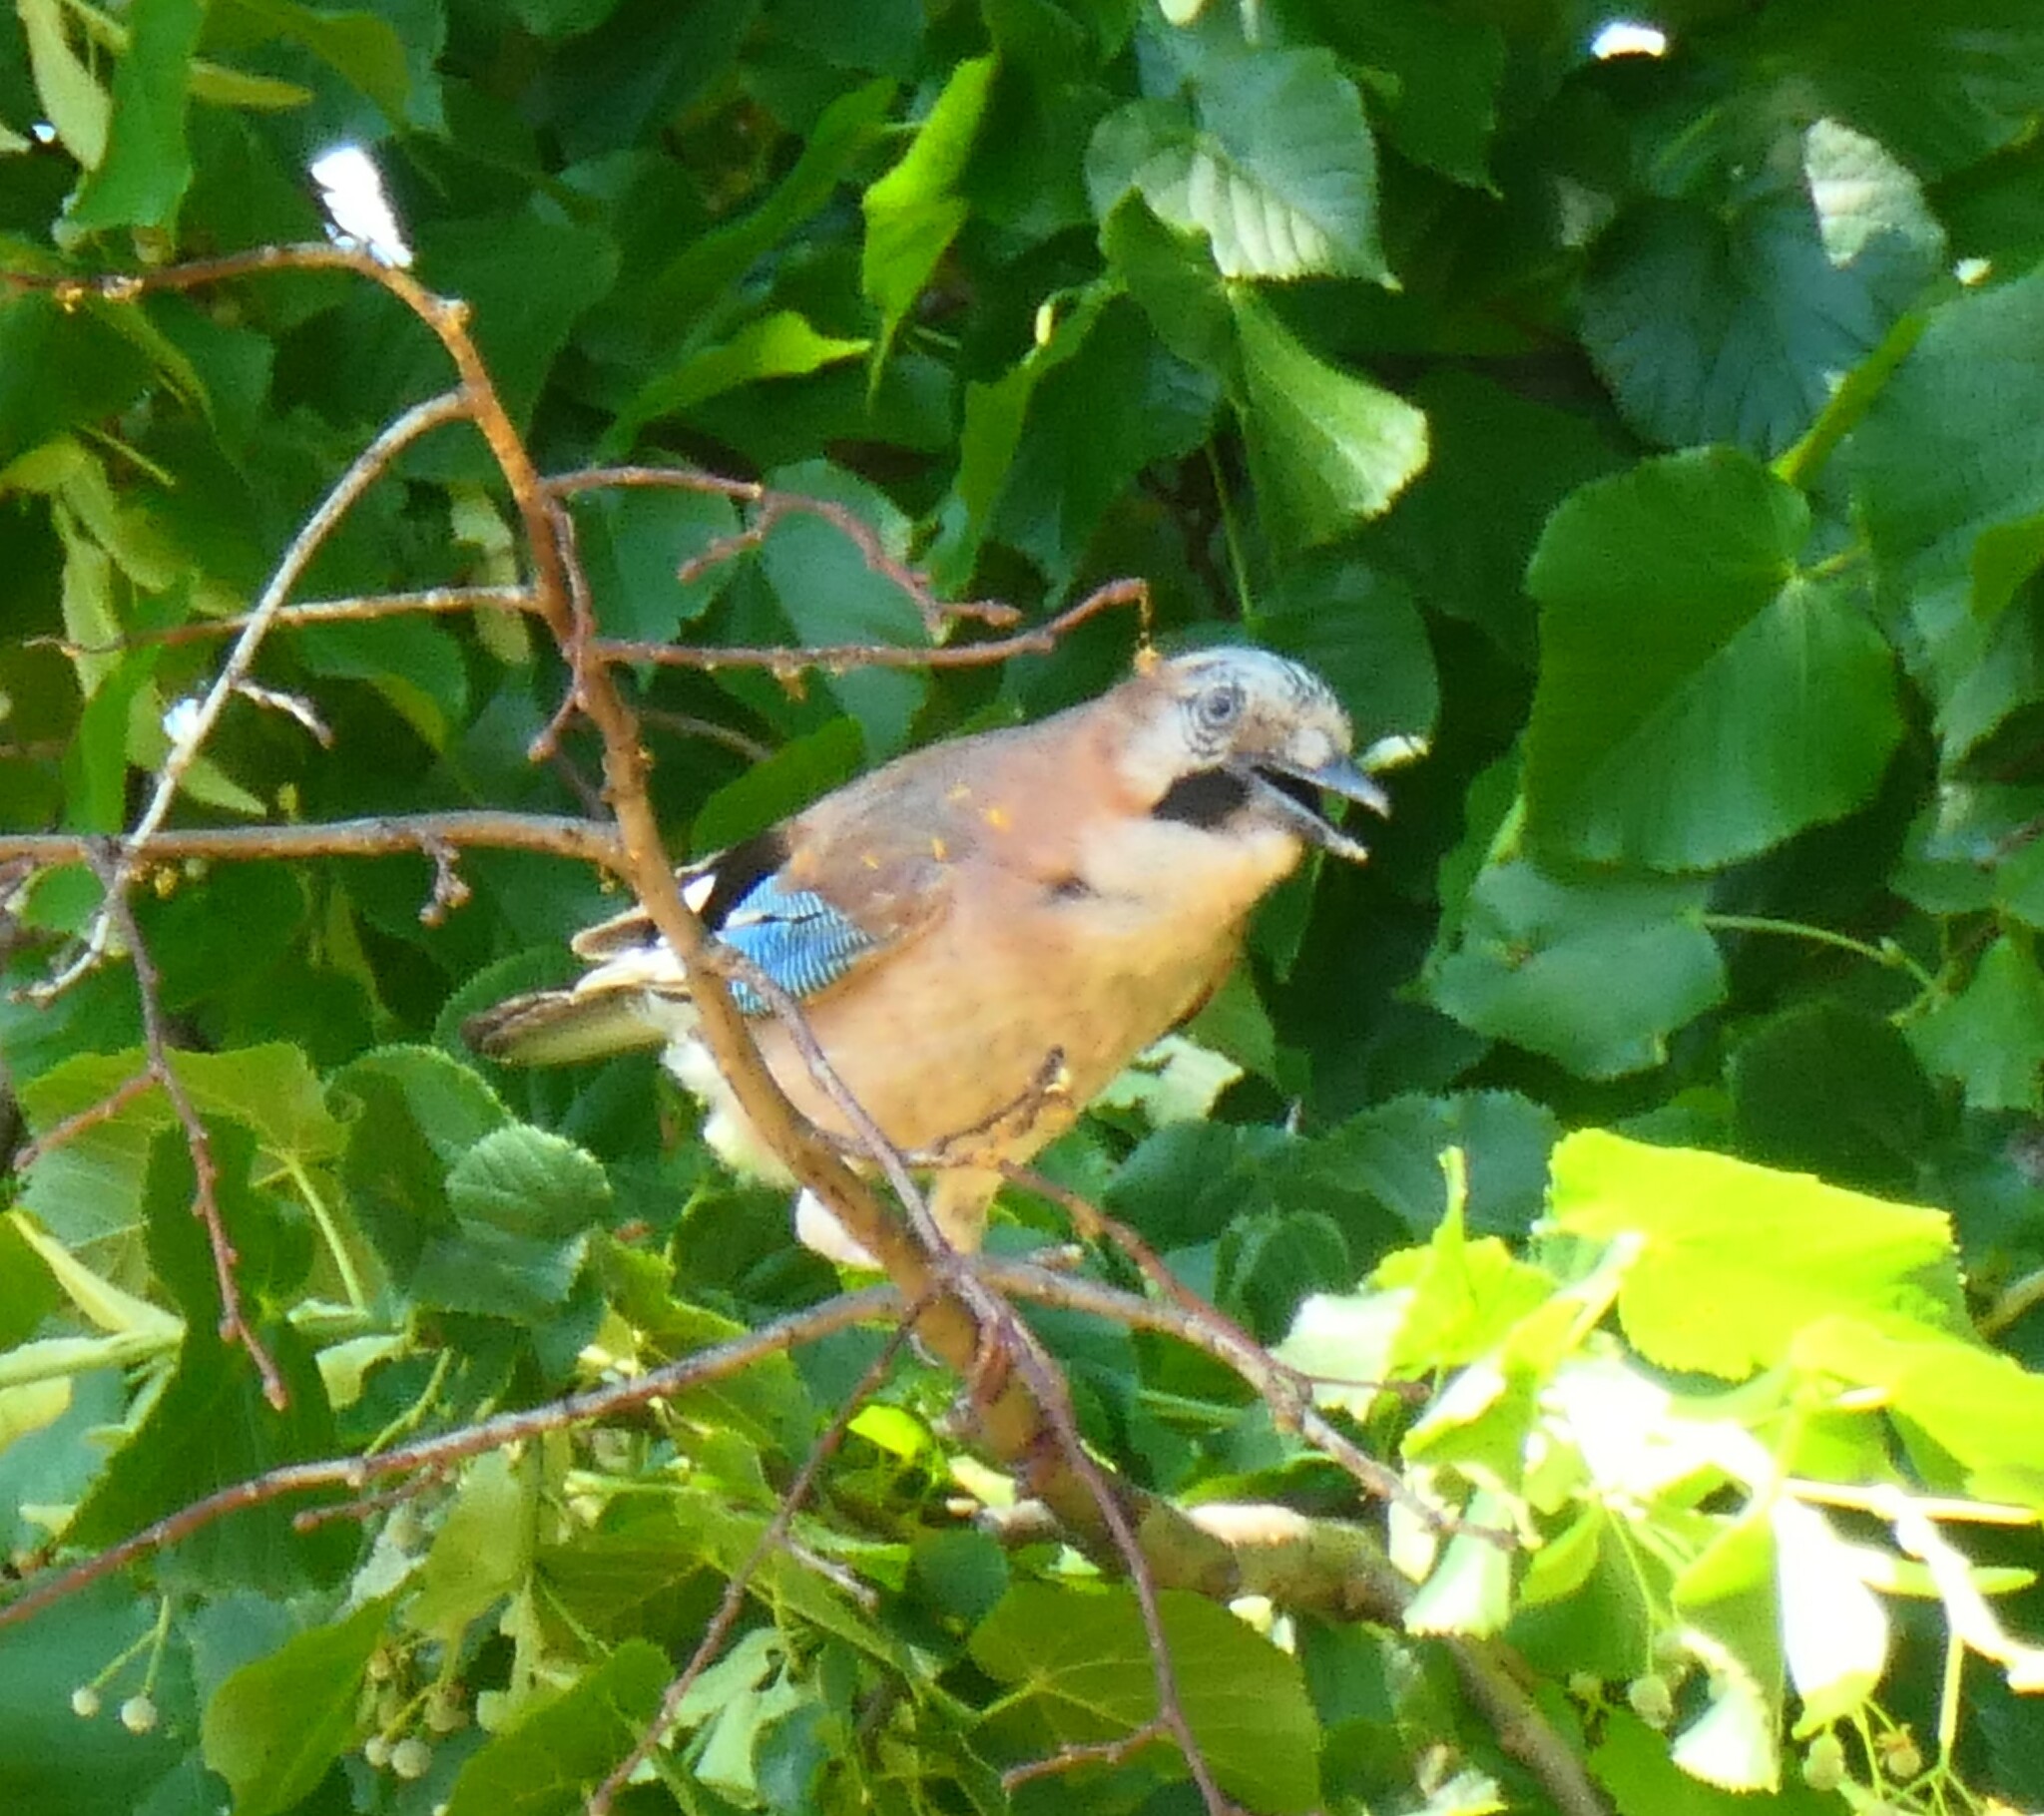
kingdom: Animalia
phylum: Chordata
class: Aves
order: Passeriformes
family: Corvidae
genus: Garrulus
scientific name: Garrulus glandarius
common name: Eurasian jay
